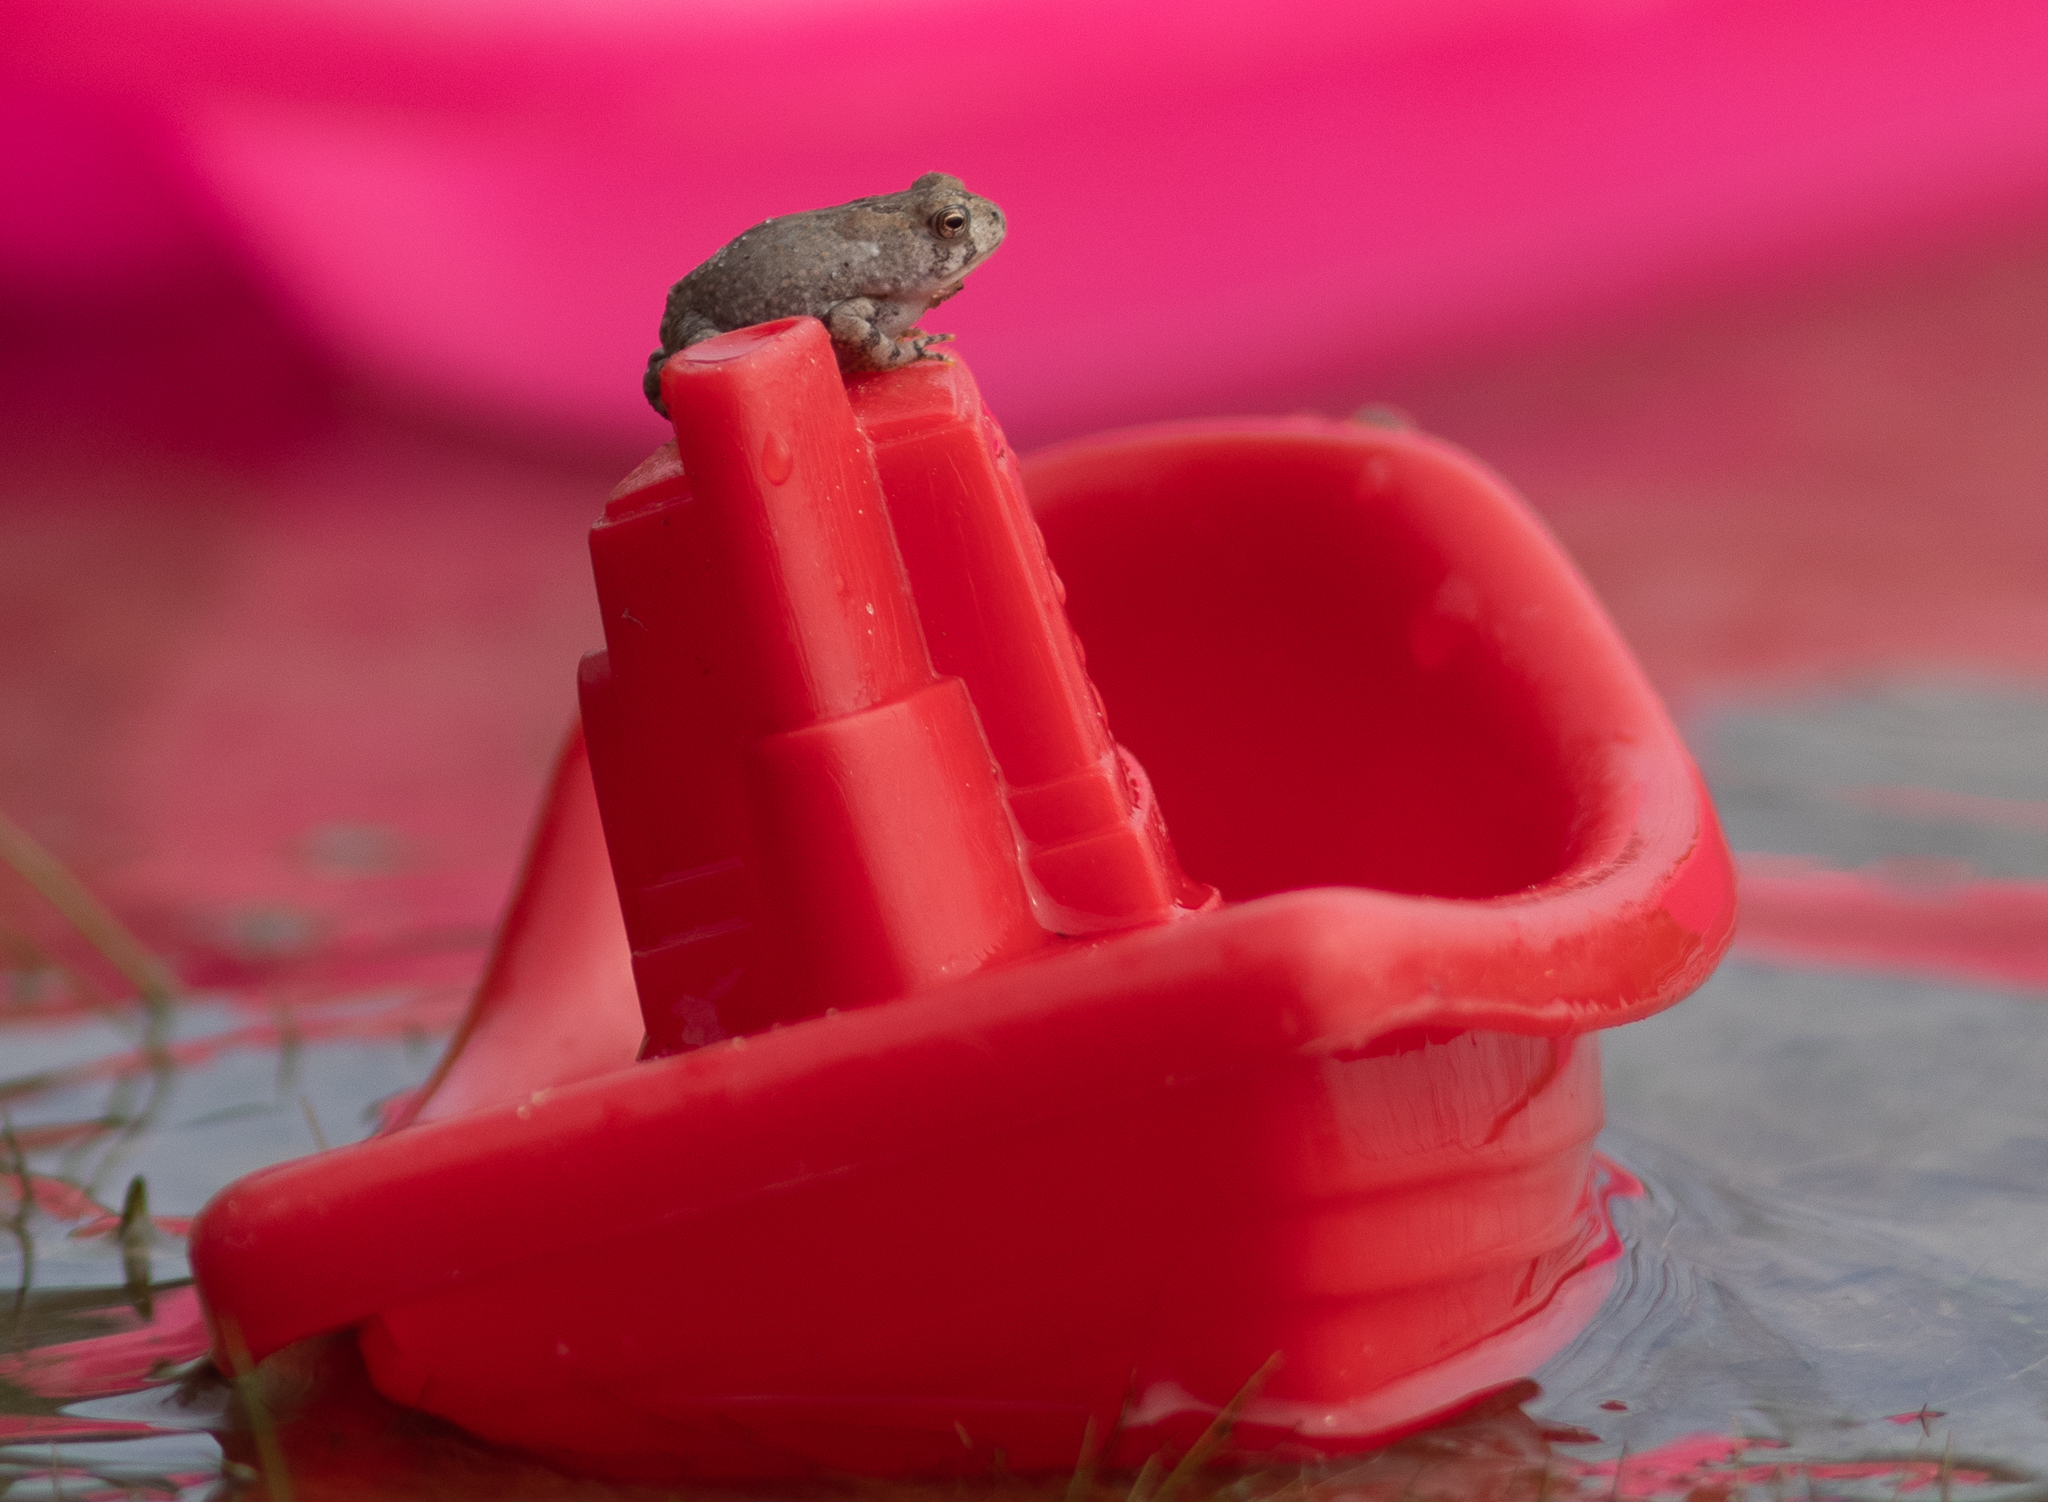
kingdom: Animalia
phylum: Chordata
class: Amphibia
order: Anura
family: Bufonidae
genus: Anaxyrus
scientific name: Anaxyrus fowleri
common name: Fowler's toad
